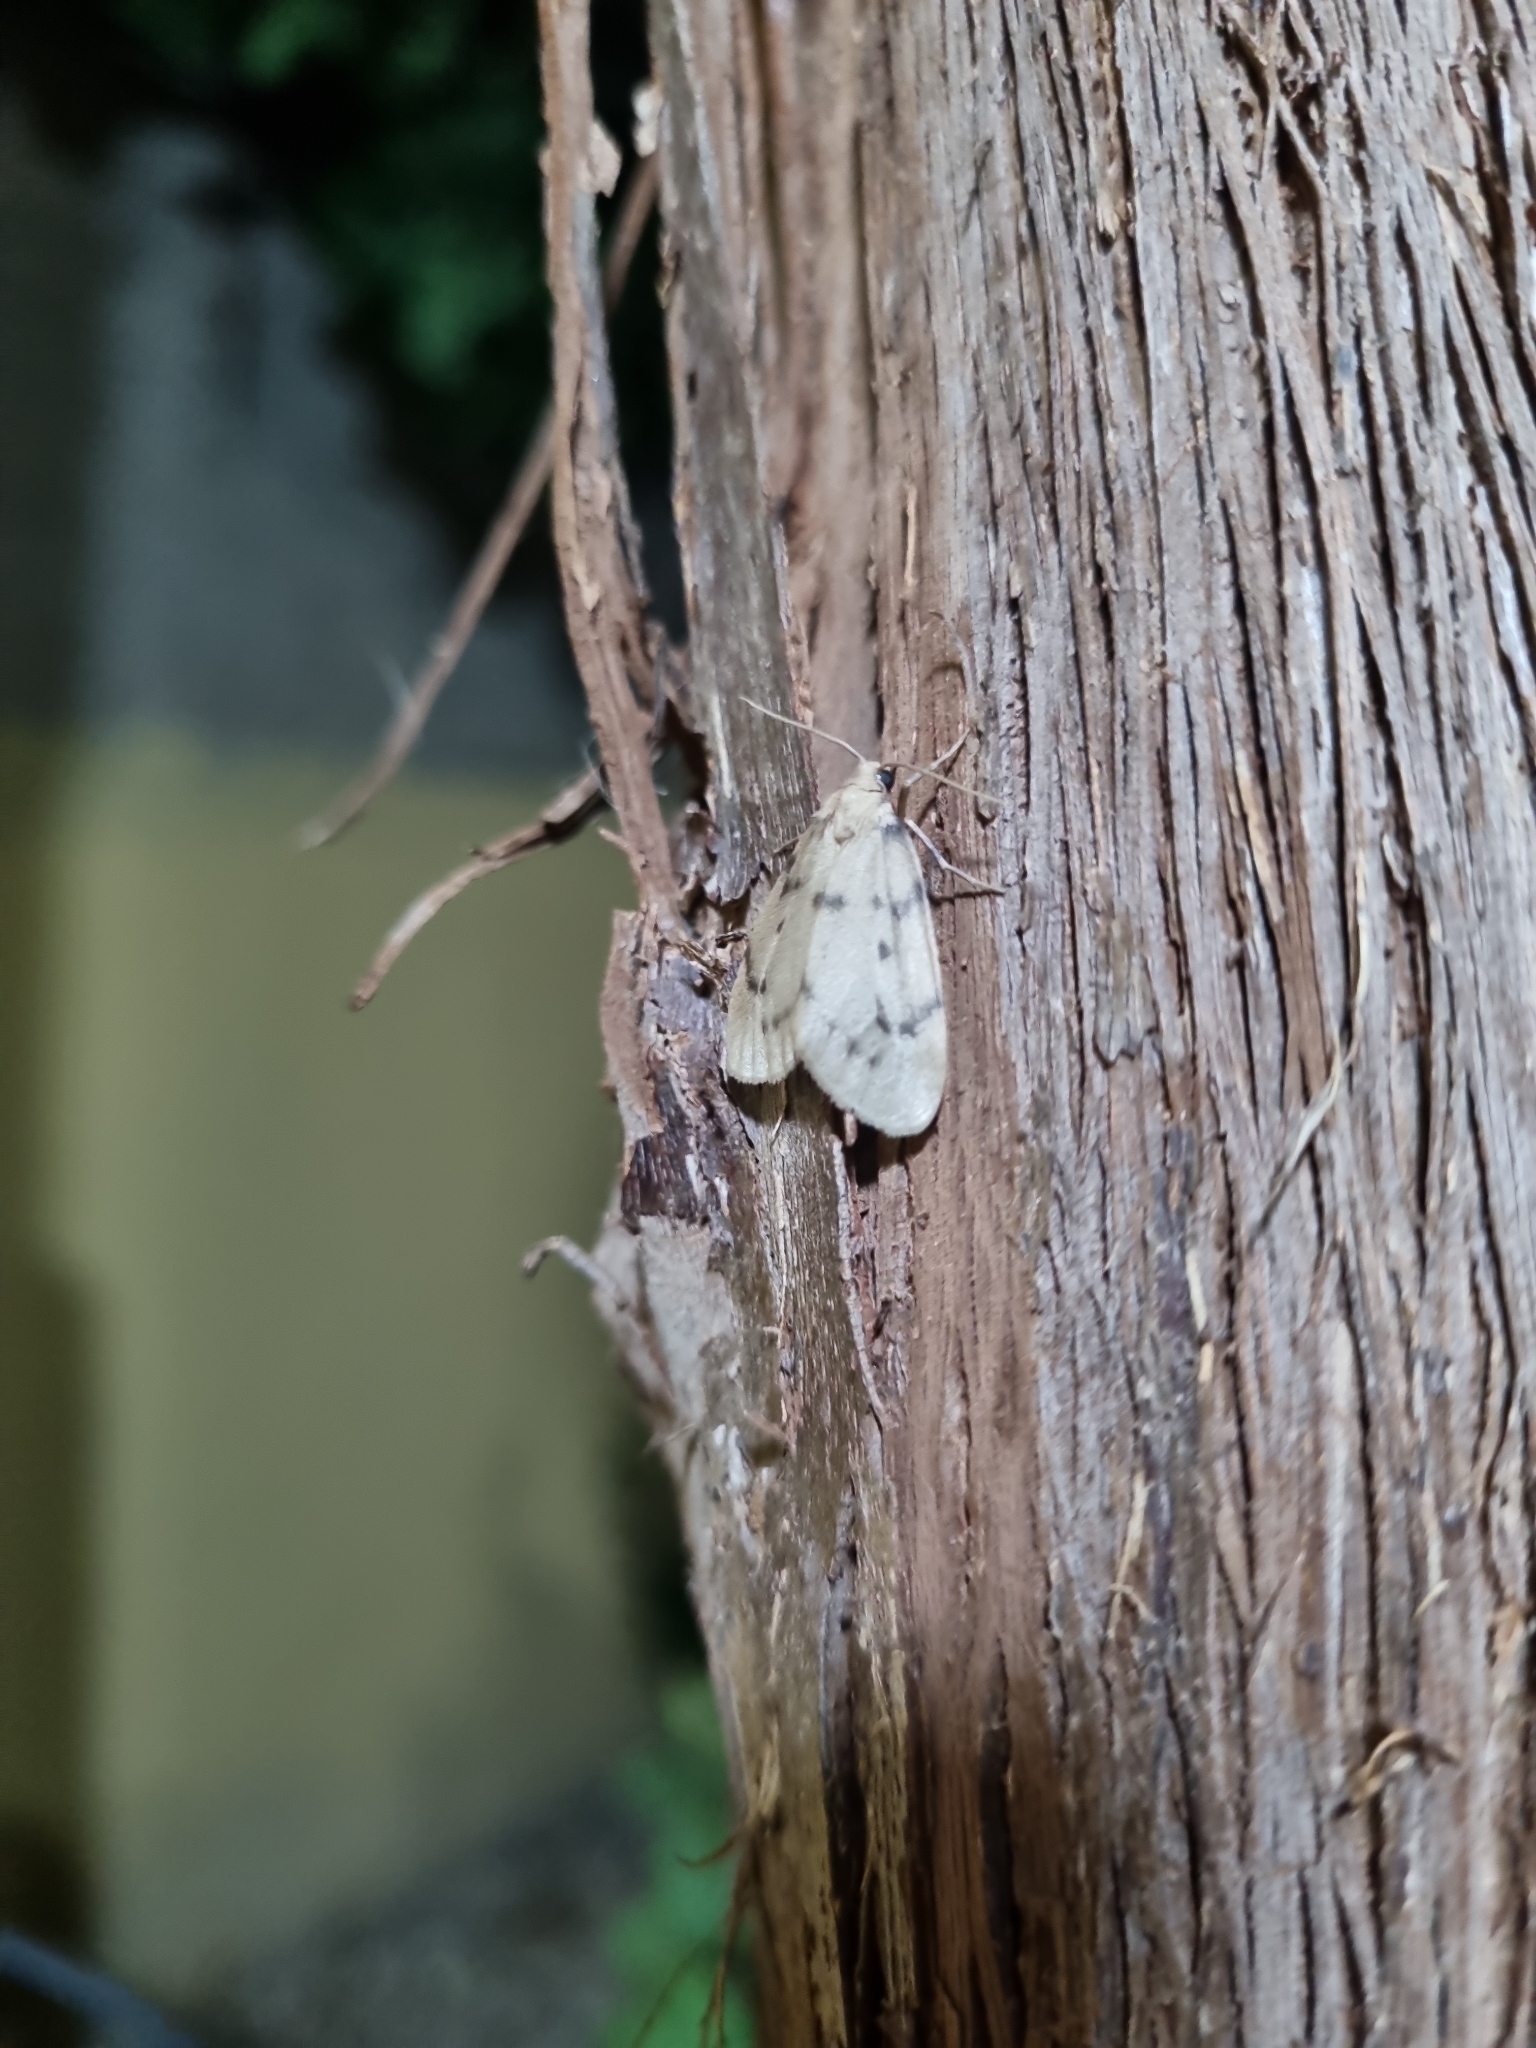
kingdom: Animalia
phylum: Arthropoda
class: Insecta
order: Lepidoptera
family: Erebidae
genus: Paidia
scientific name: Paidia rica
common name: Glaucous muslin
